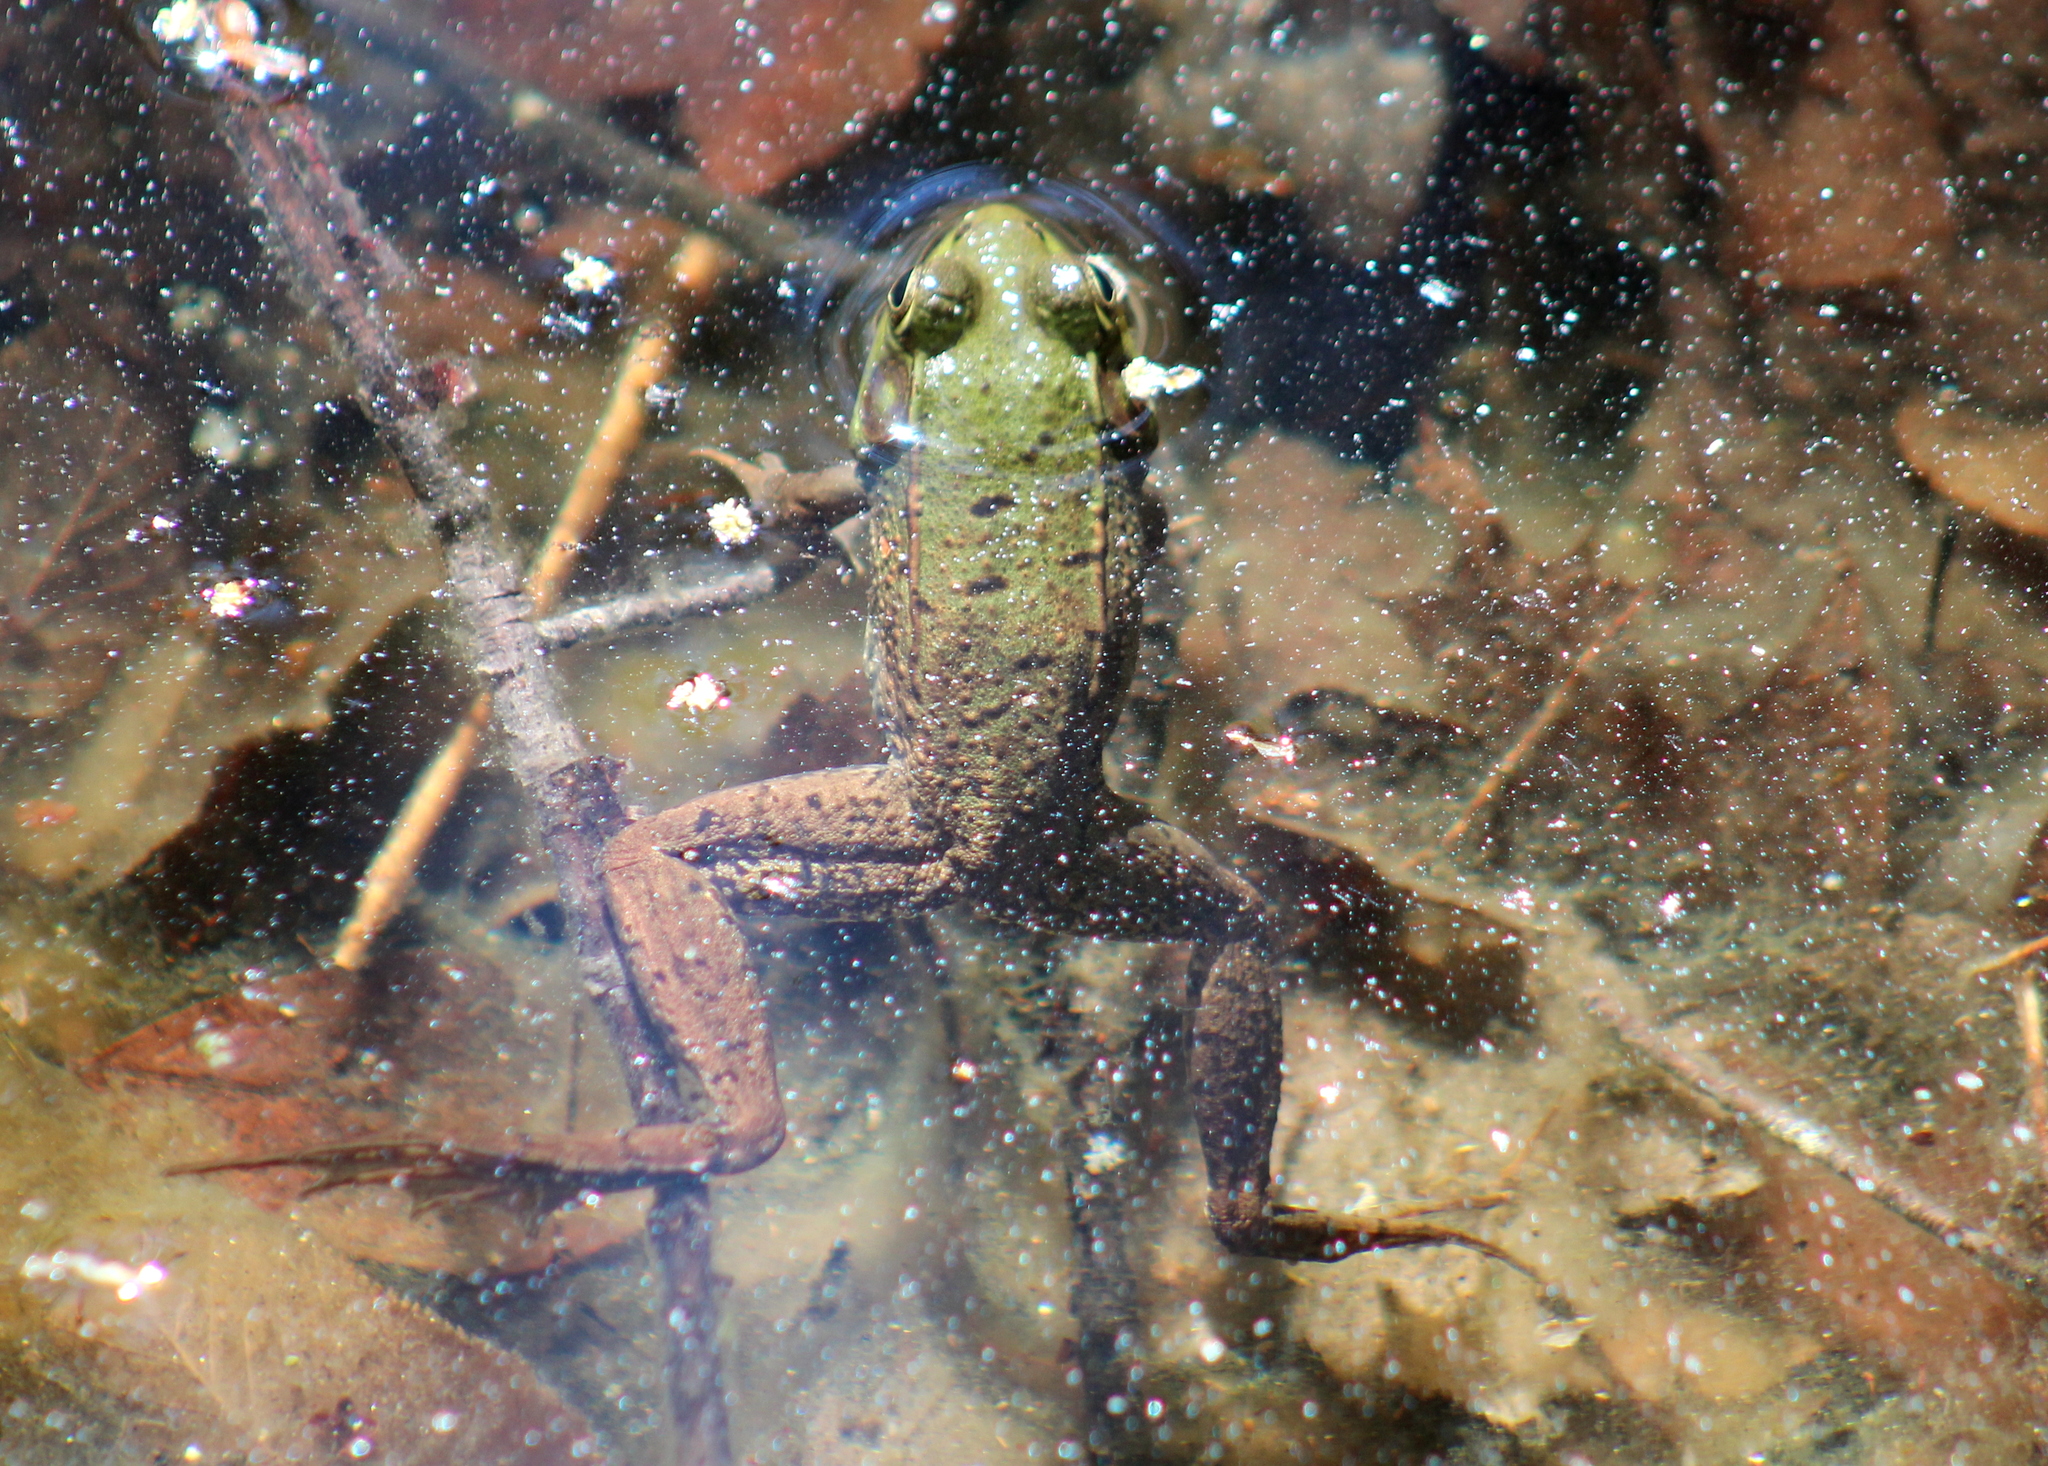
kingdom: Animalia
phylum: Chordata
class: Amphibia
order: Anura
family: Ranidae
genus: Lithobates
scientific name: Lithobates clamitans
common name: Green frog
